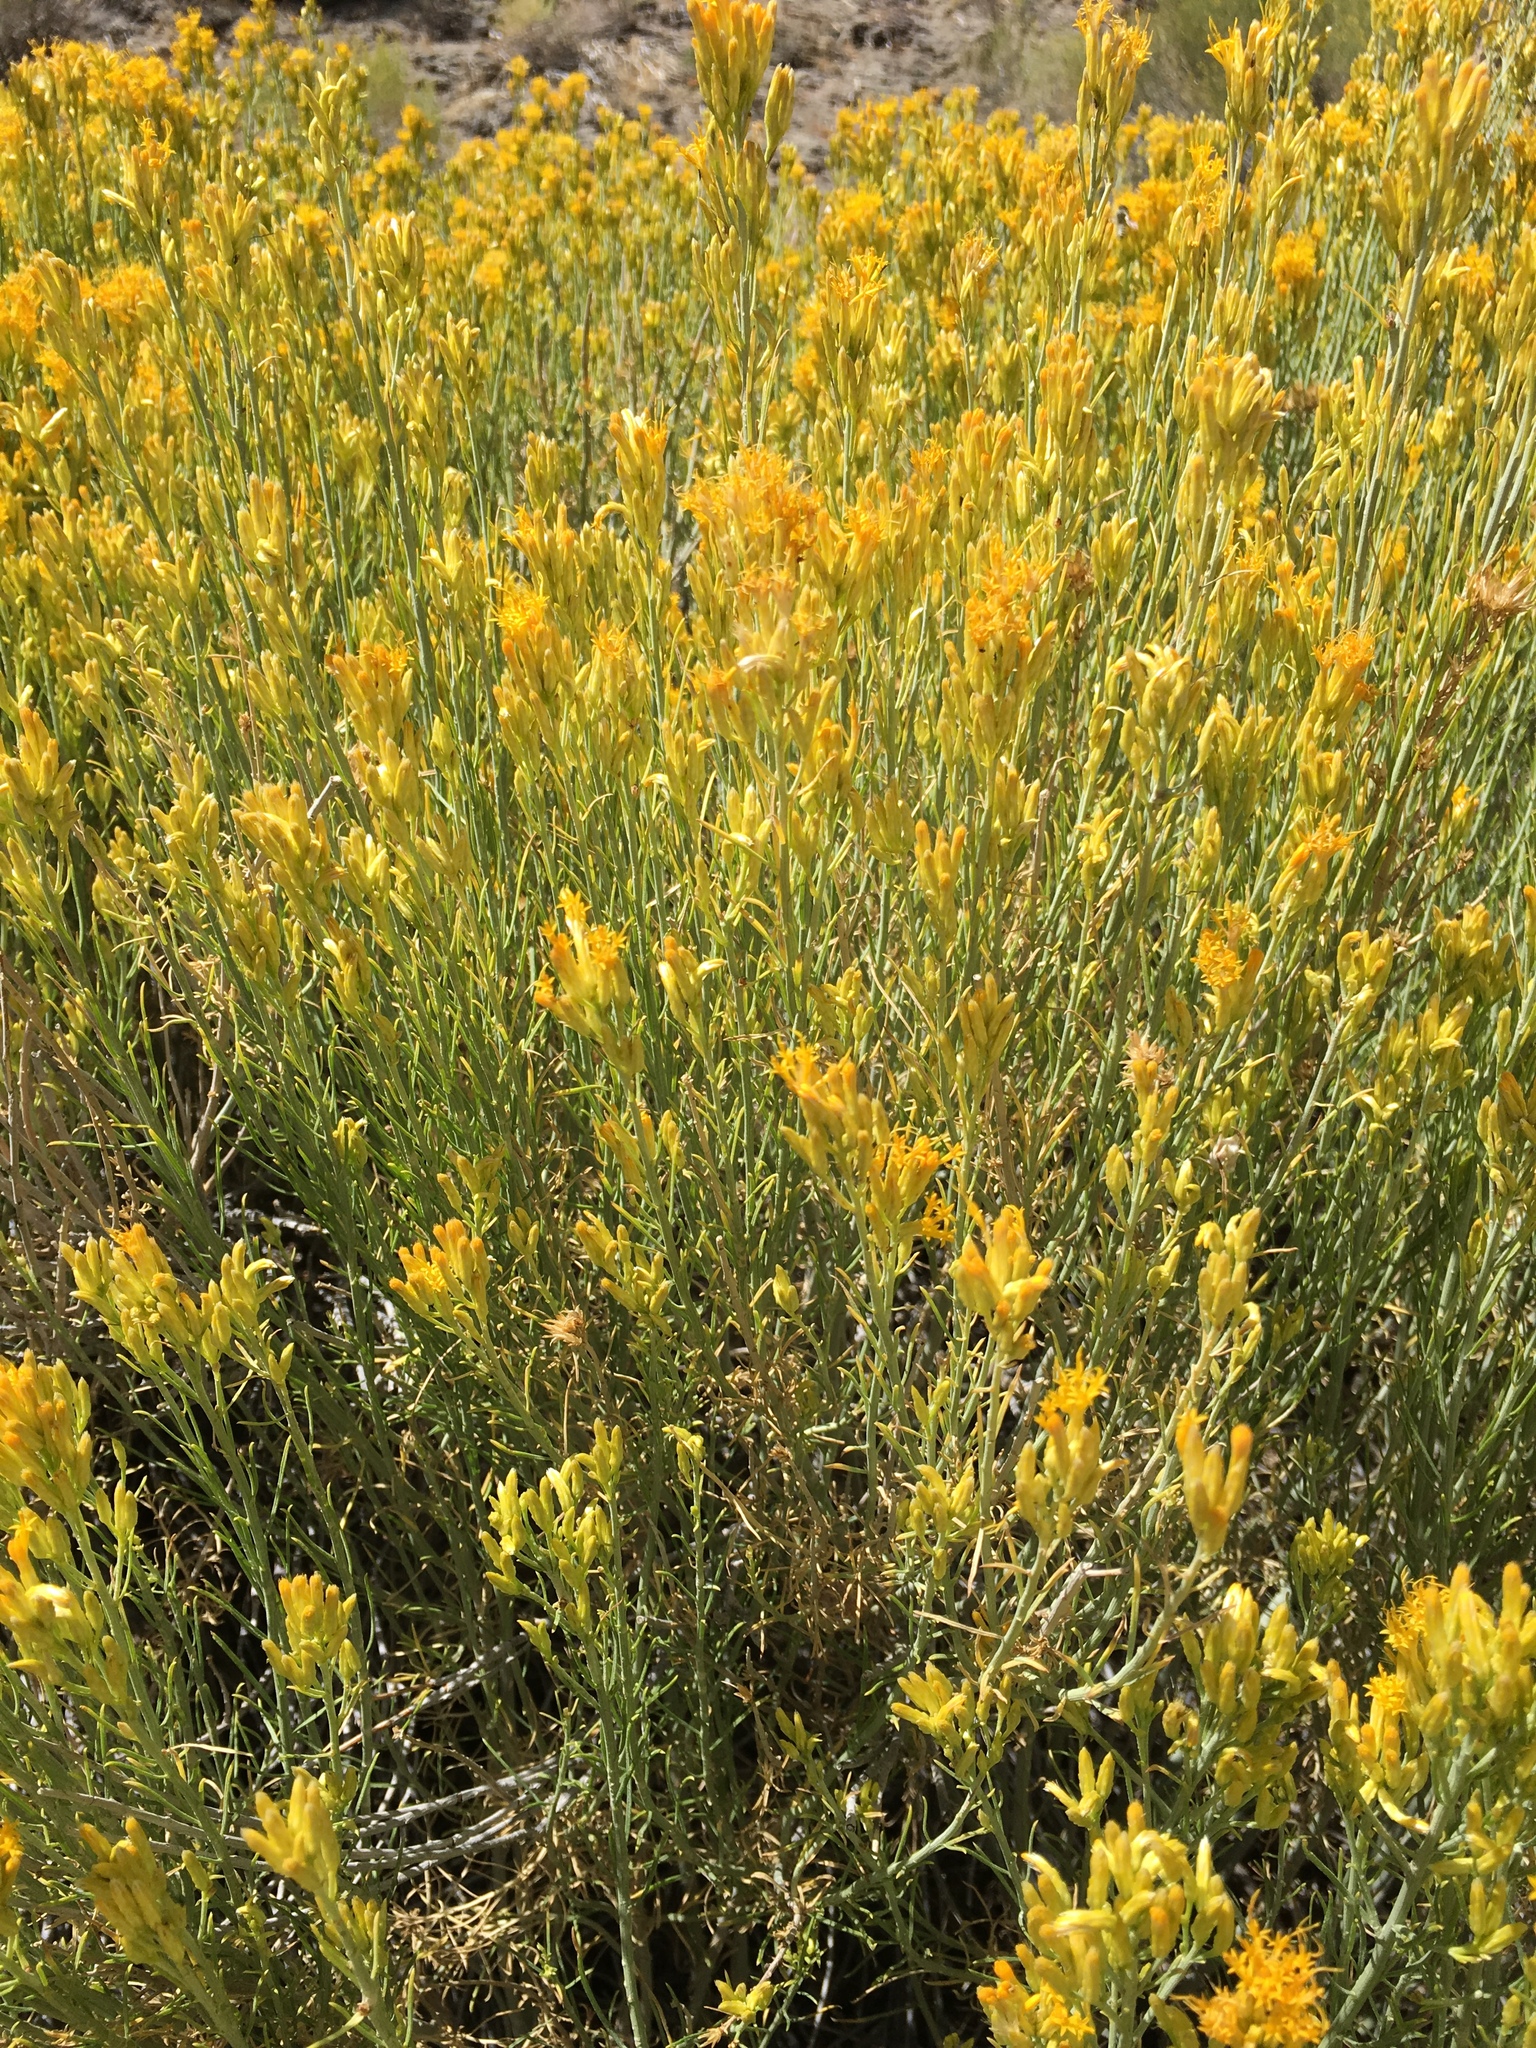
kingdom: Plantae
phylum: Tracheophyta
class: Magnoliopsida
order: Asterales
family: Asteraceae
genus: Ericameria
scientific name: Ericameria nauseosa
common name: Rubber rabbitbrush
